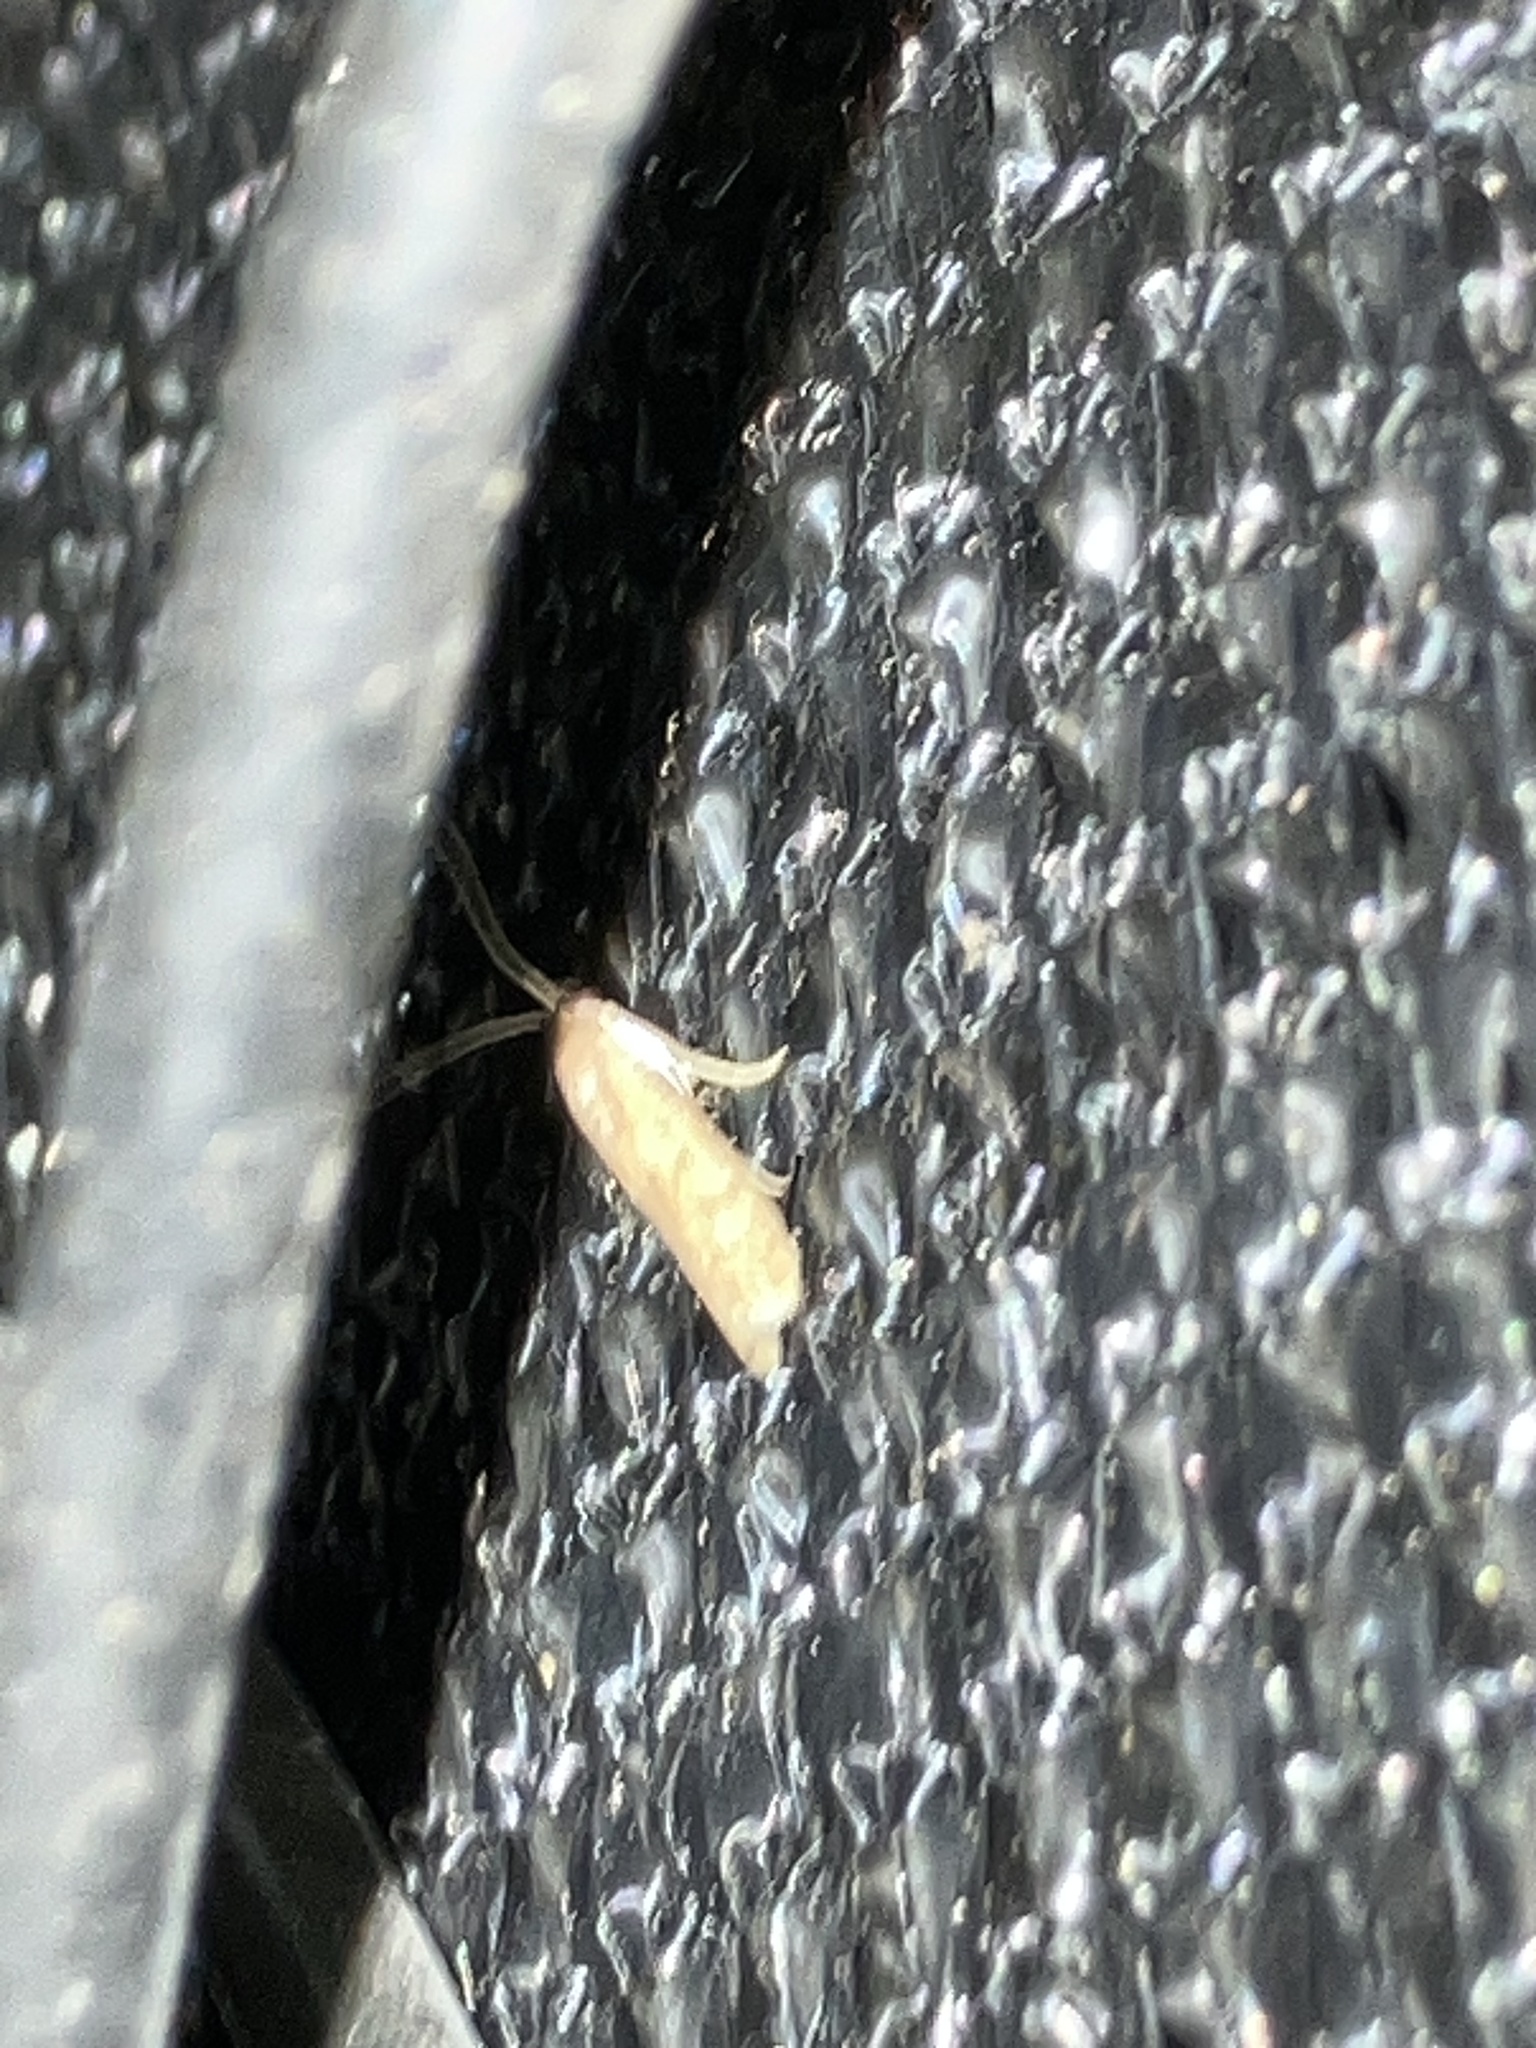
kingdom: Animalia
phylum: Arthropoda
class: Insecta
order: Lepidoptera
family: Pyralidae
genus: Phycitinae
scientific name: Phycitinae
